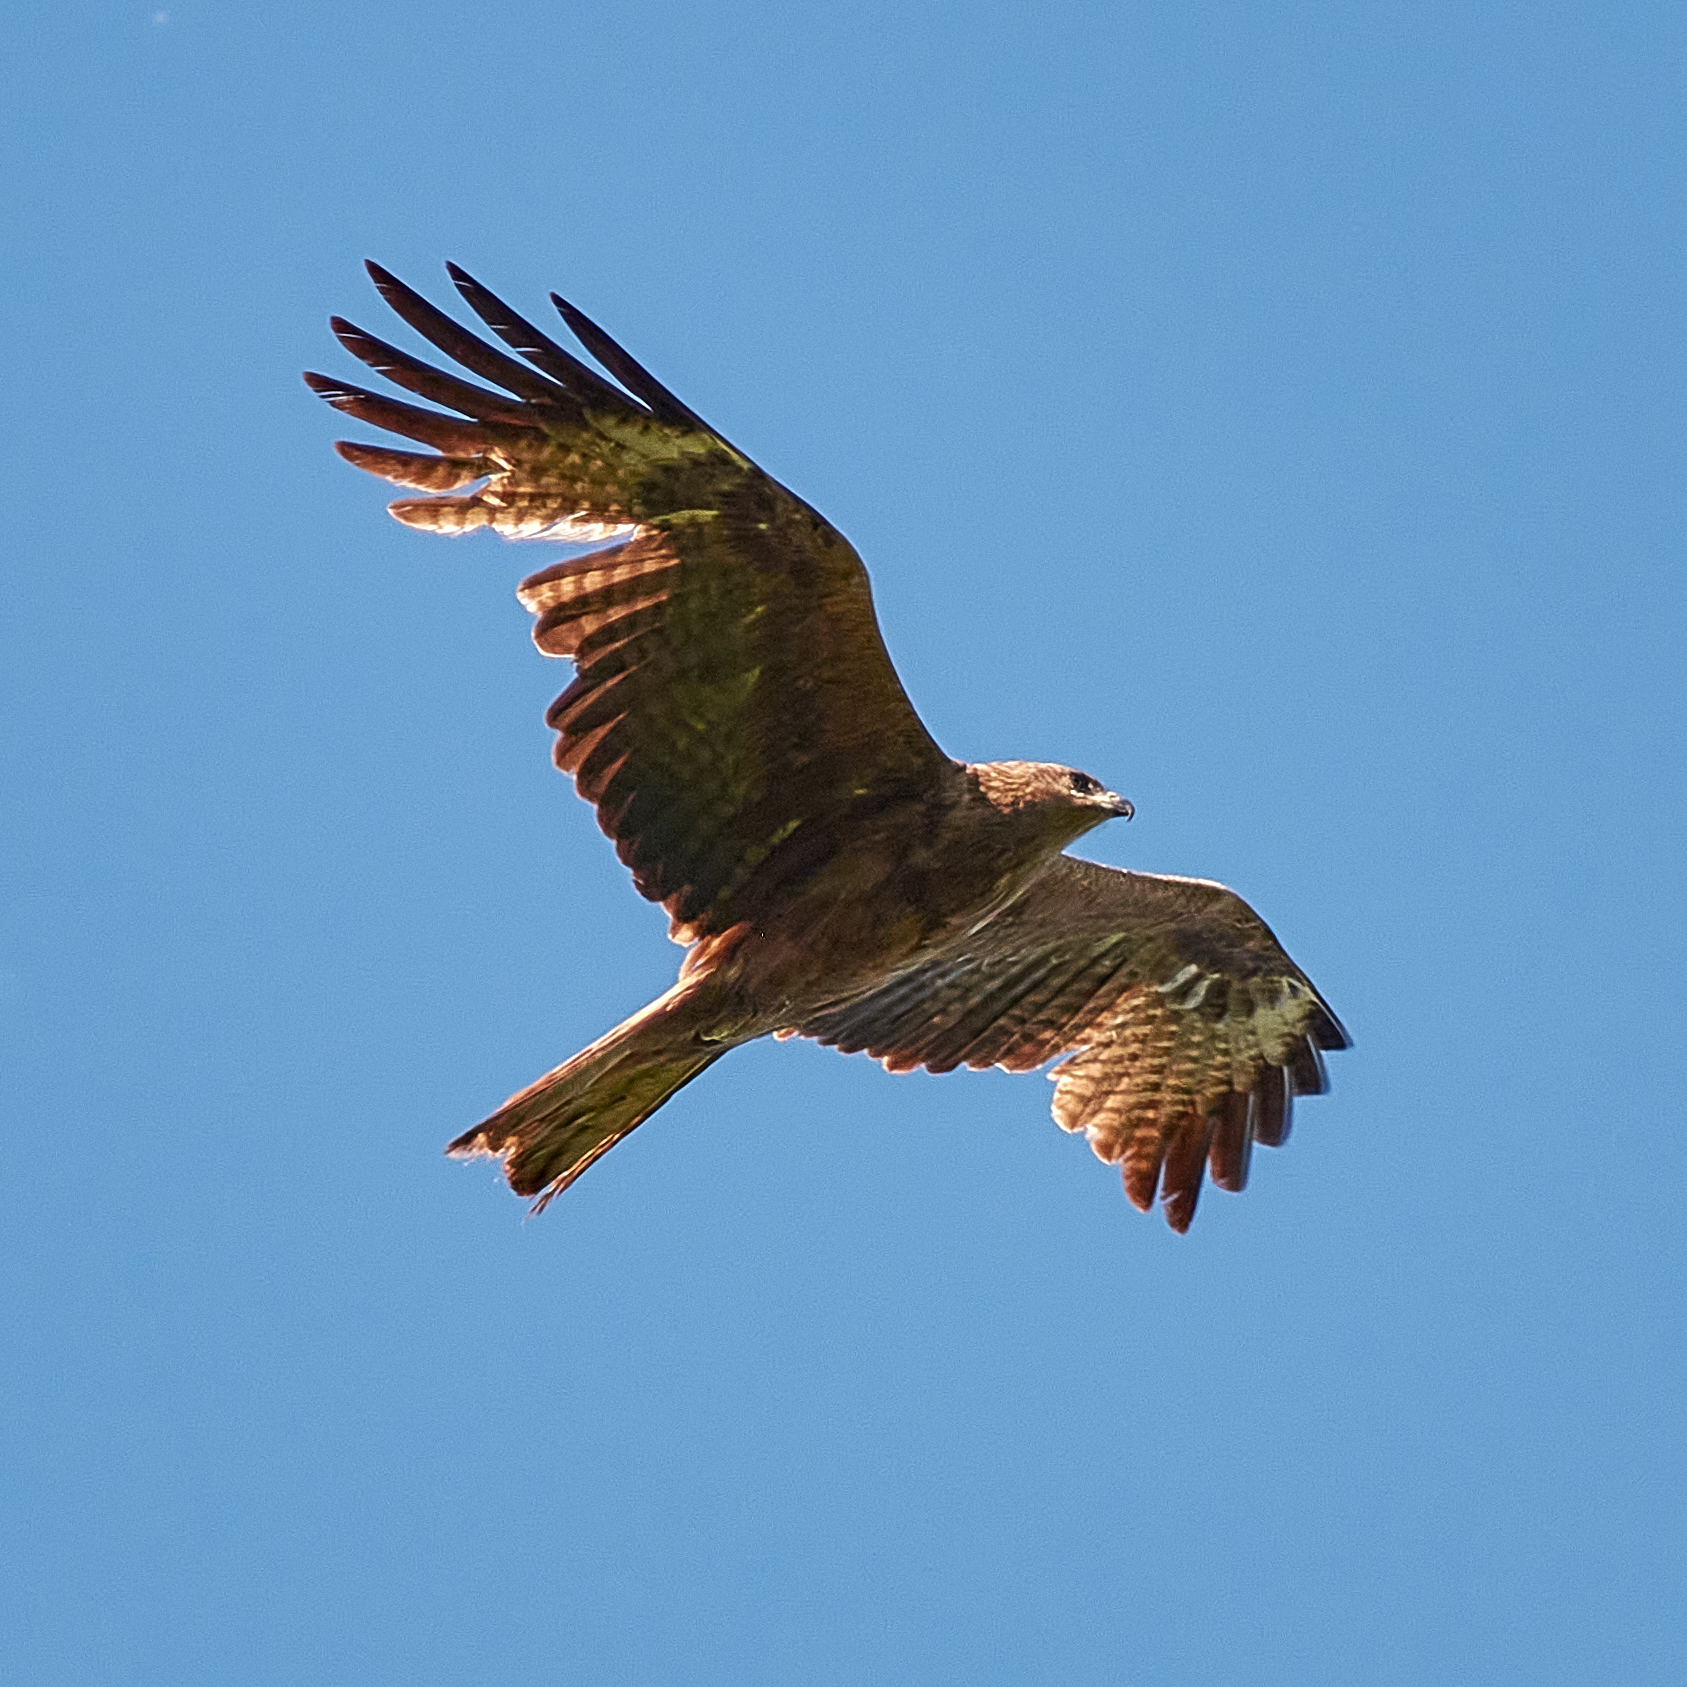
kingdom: Animalia
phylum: Chordata
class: Aves
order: Accipitriformes
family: Accipitridae
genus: Milvus
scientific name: Milvus migrans
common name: Black kite
